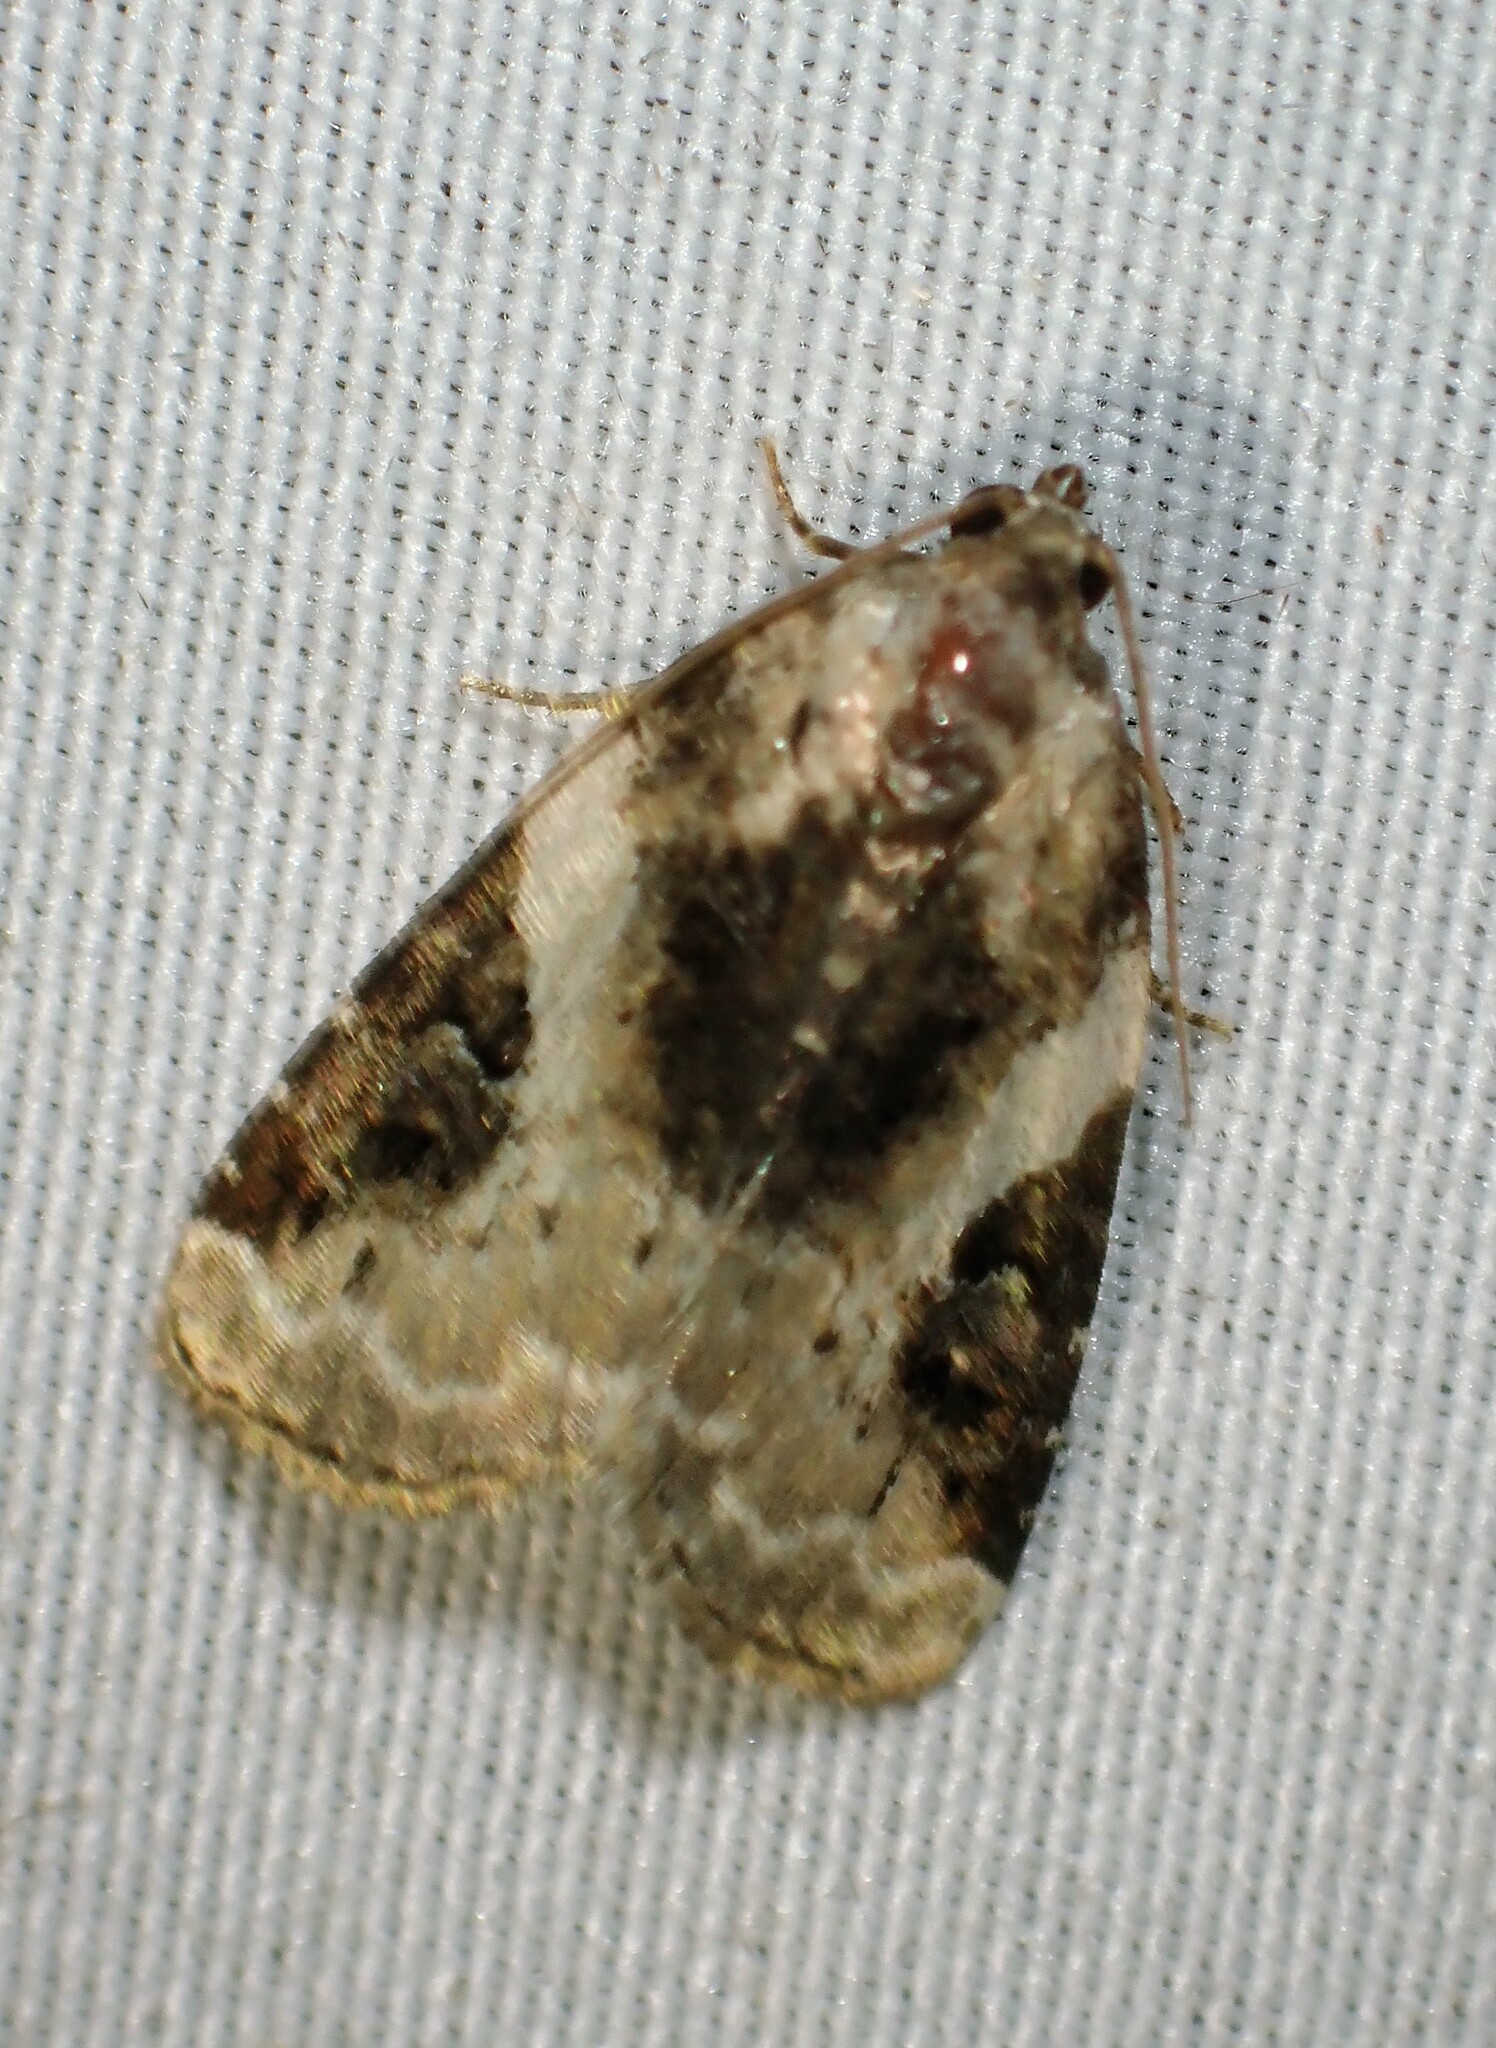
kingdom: Animalia
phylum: Arthropoda
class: Insecta
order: Lepidoptera
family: Noctuidae
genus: Pseudeustrotia
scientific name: Pseudeustrotia carneola
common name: Pink-barred lithacodia moth
